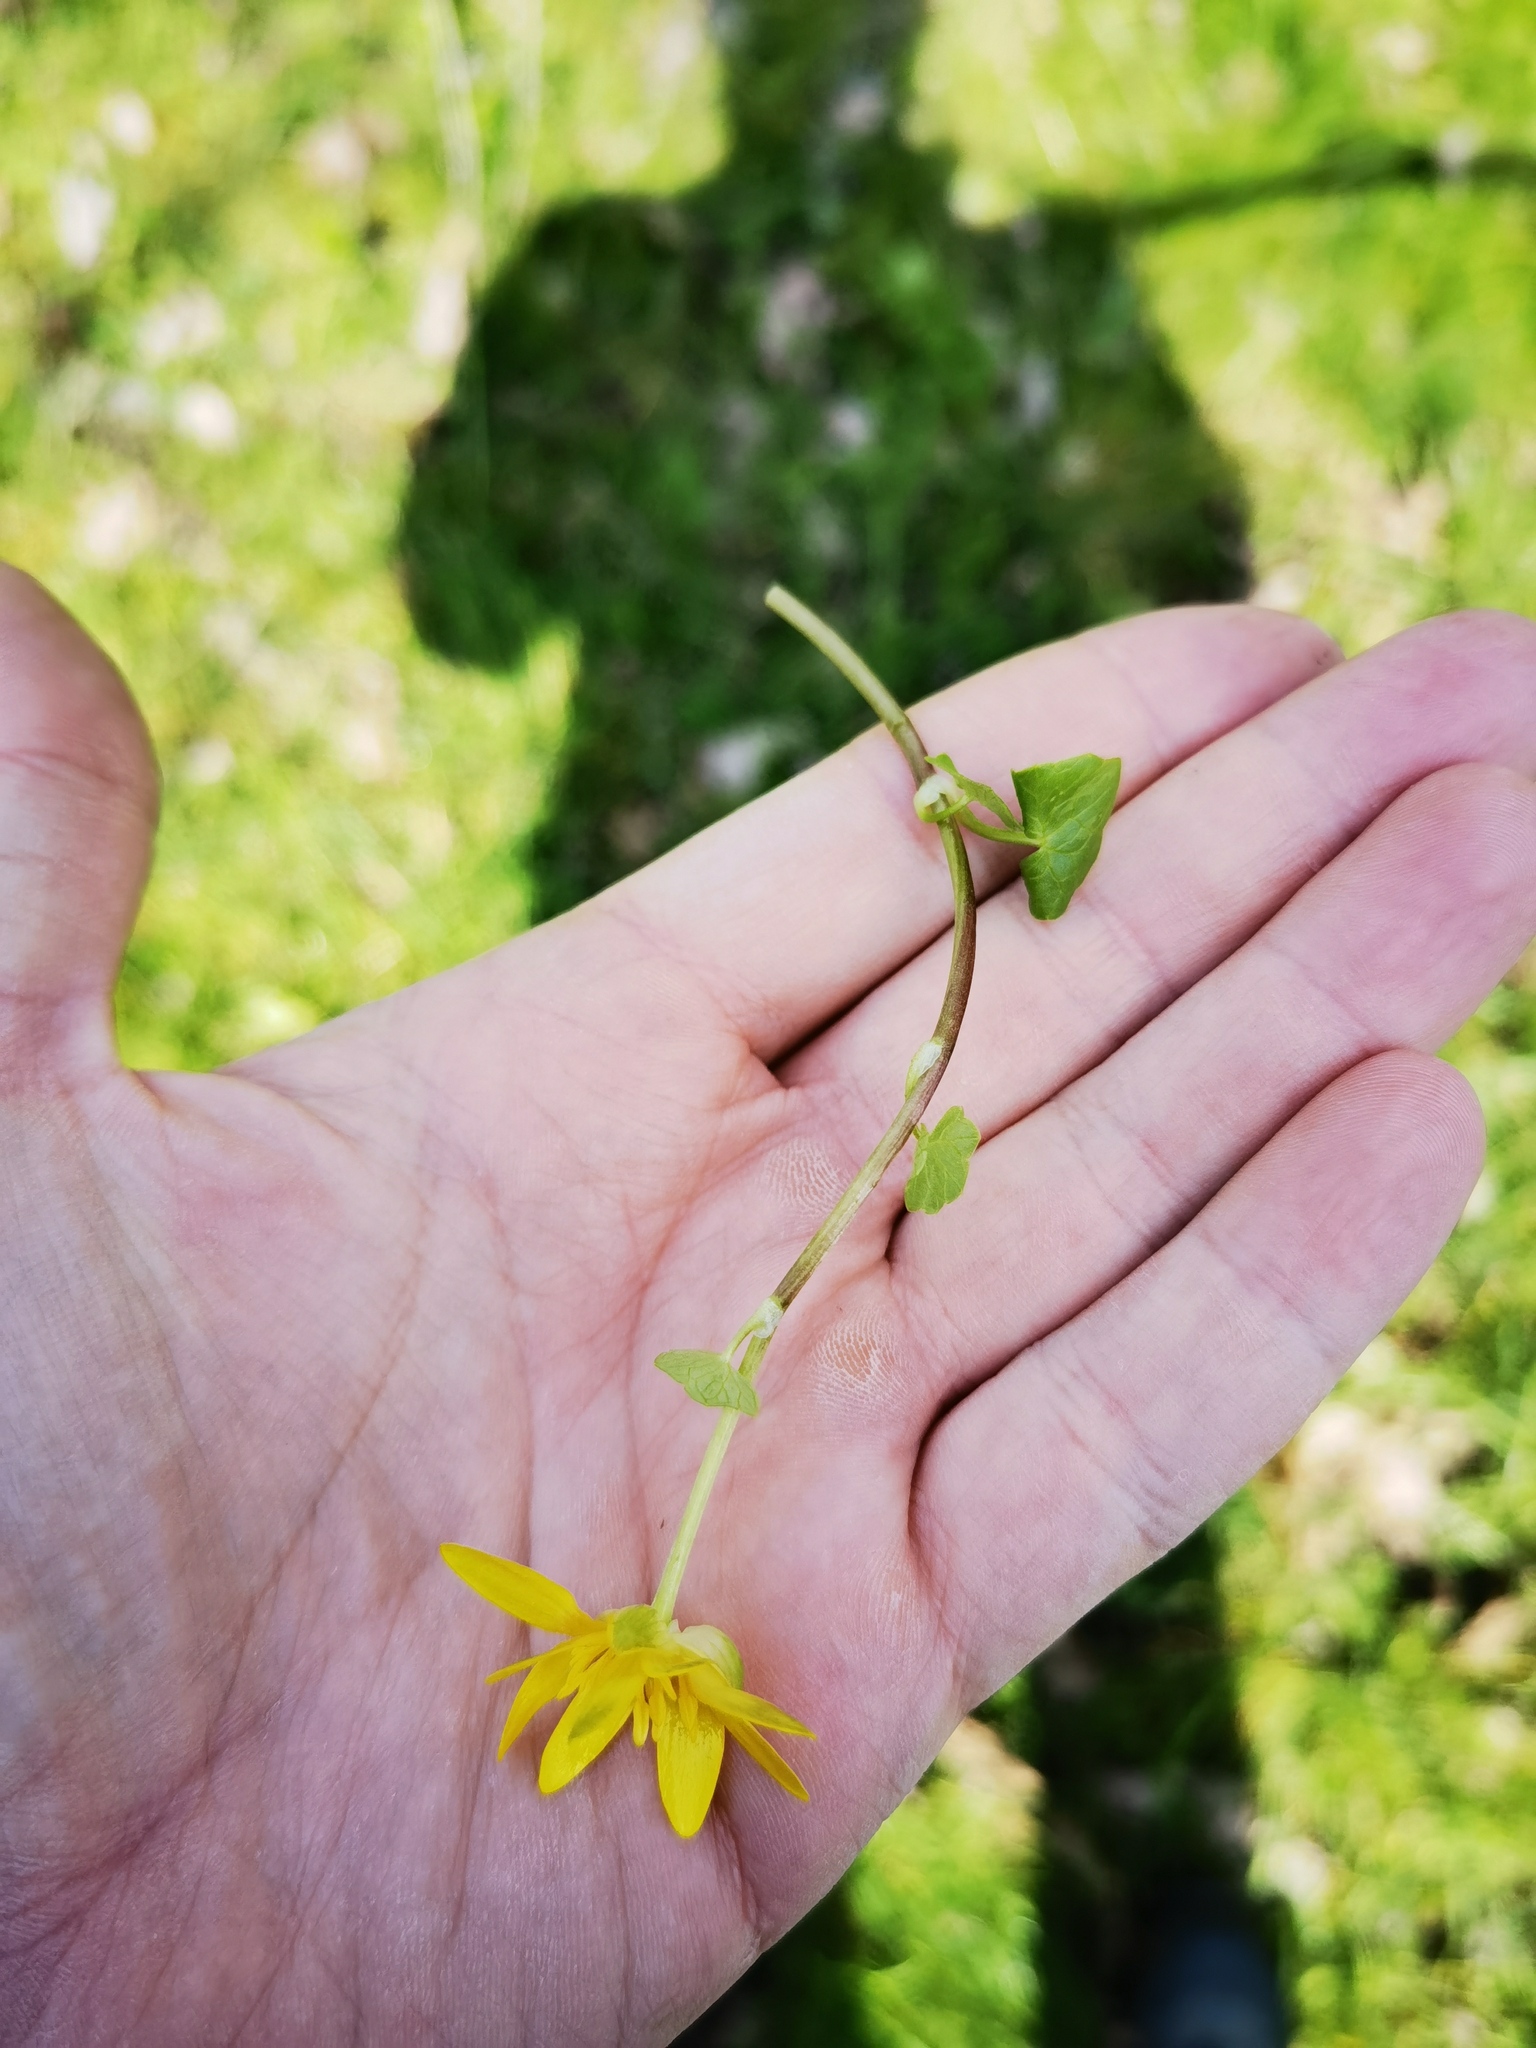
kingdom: Plantae
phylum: Tracheophyta
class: Magnoliopsida
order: Ranunculales
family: Ranunculaceae
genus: Ficaria
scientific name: Ficaria verna
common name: Lesser celandine
